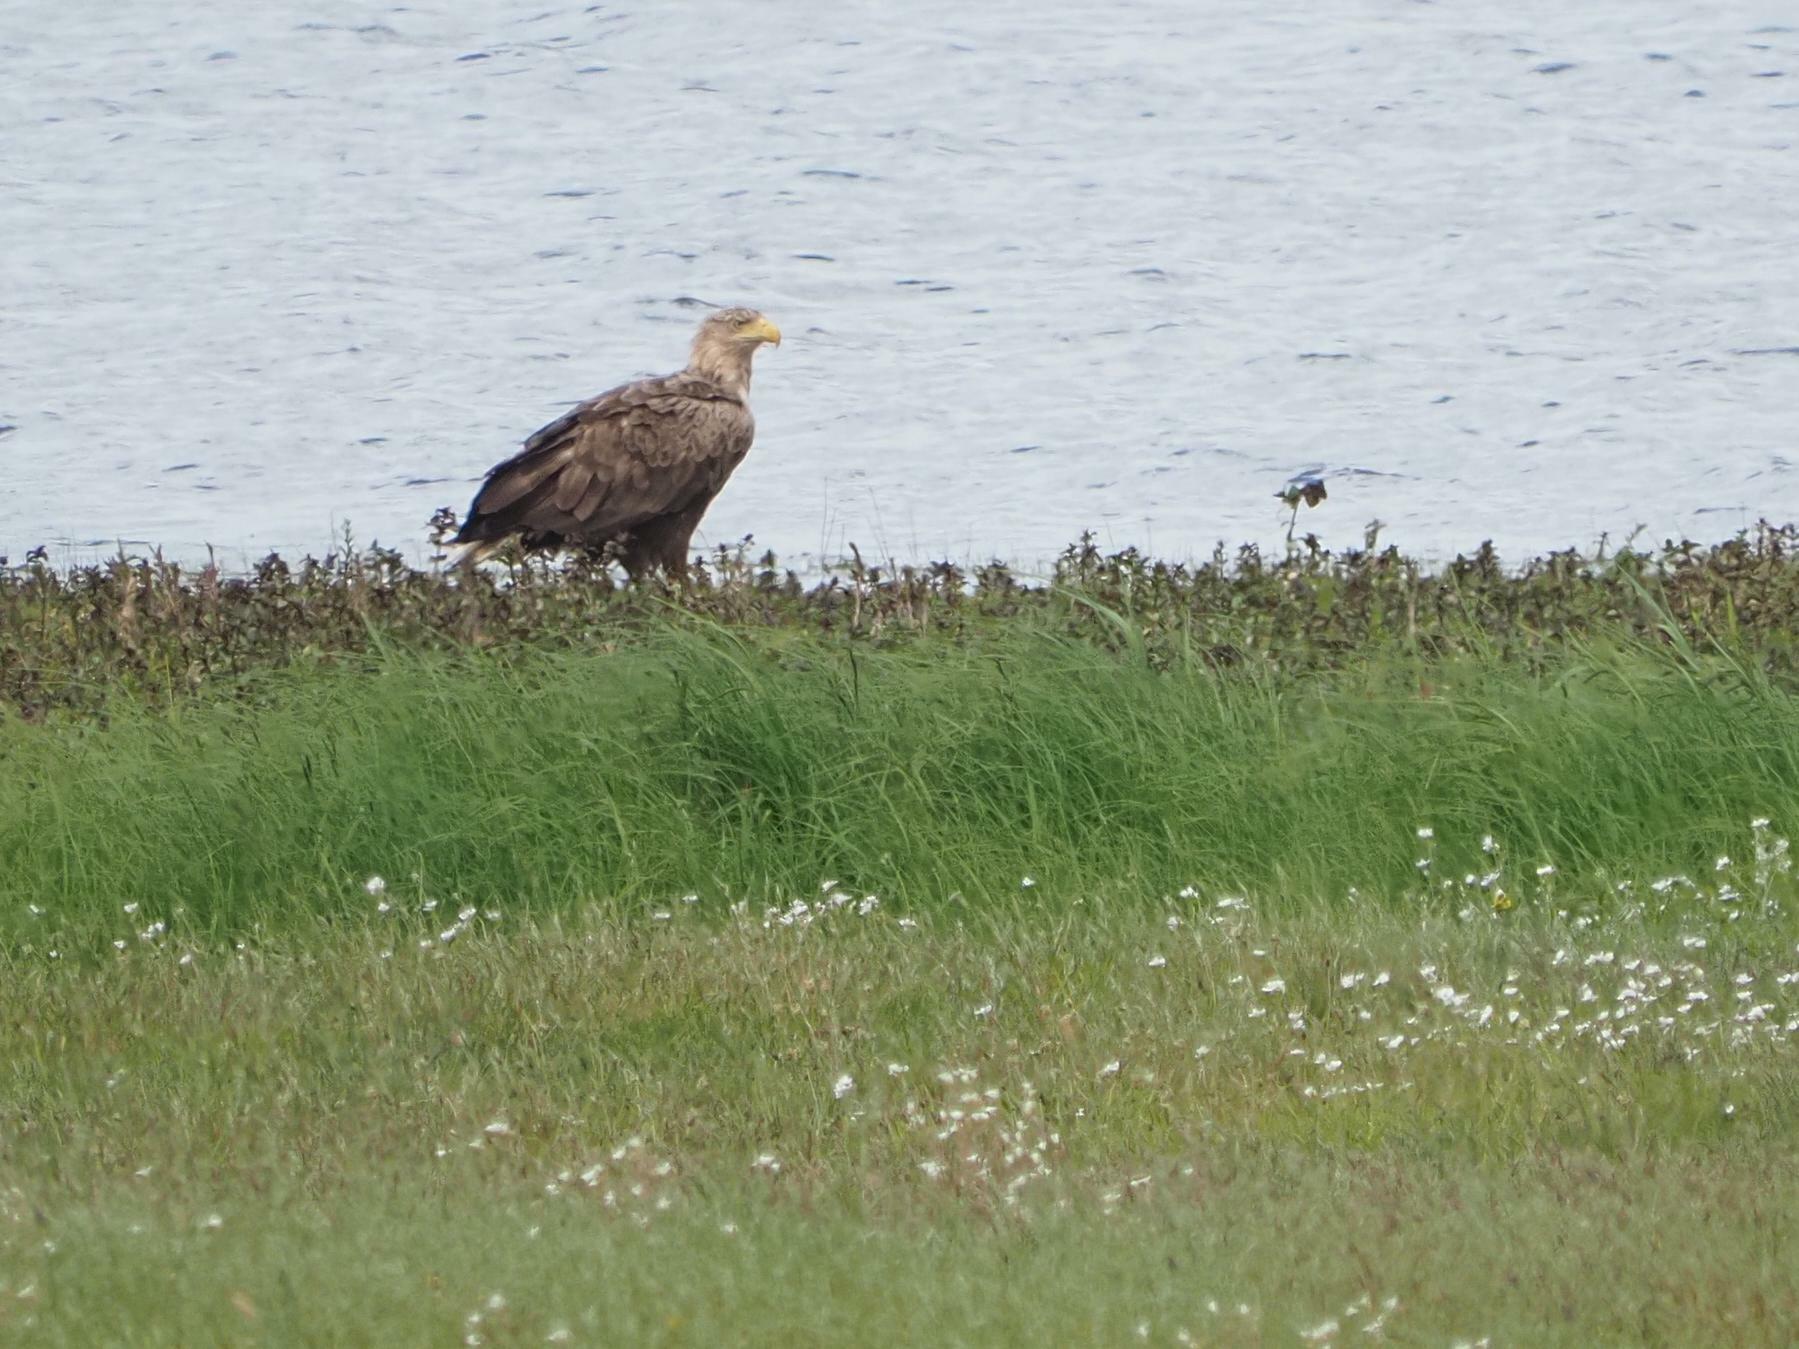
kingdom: Animalia
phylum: Chordata
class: Aves
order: Accipitriformes
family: Accipitridae
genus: Haliaeetus
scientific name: Haliaeetus albicilla
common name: White-tailed eagle
